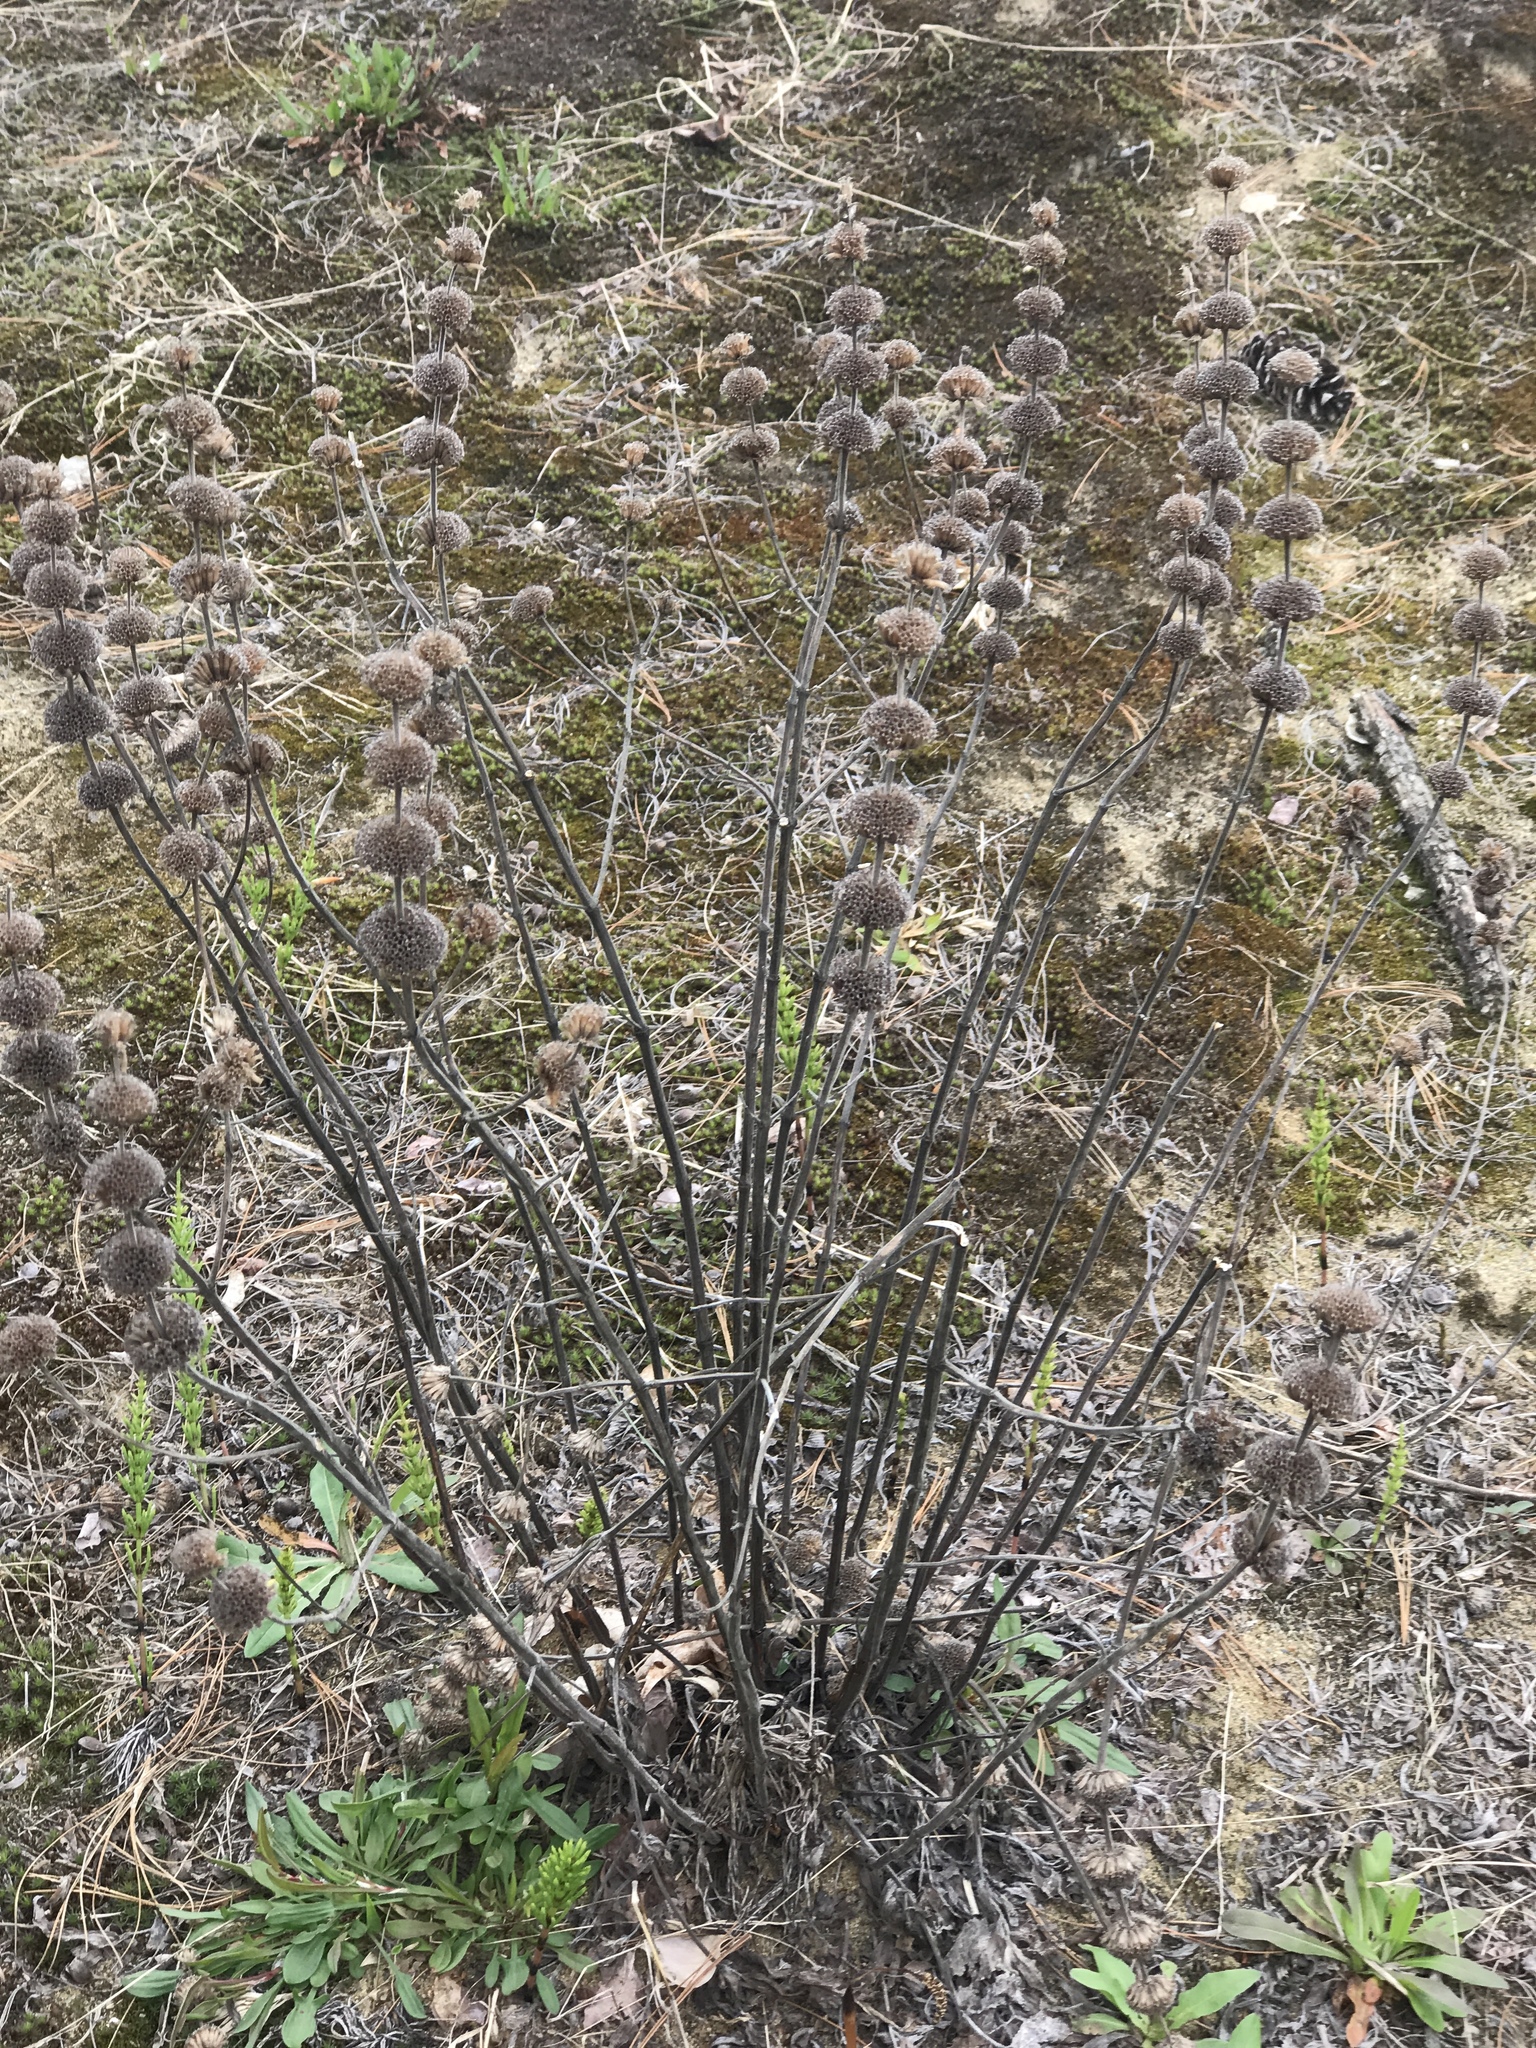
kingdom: Plantae
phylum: Tracheophyta
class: Magnoliopsida
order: Lamiales
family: Lamiaceae
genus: Monarda
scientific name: Monarda punctata
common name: Dotted monarda
